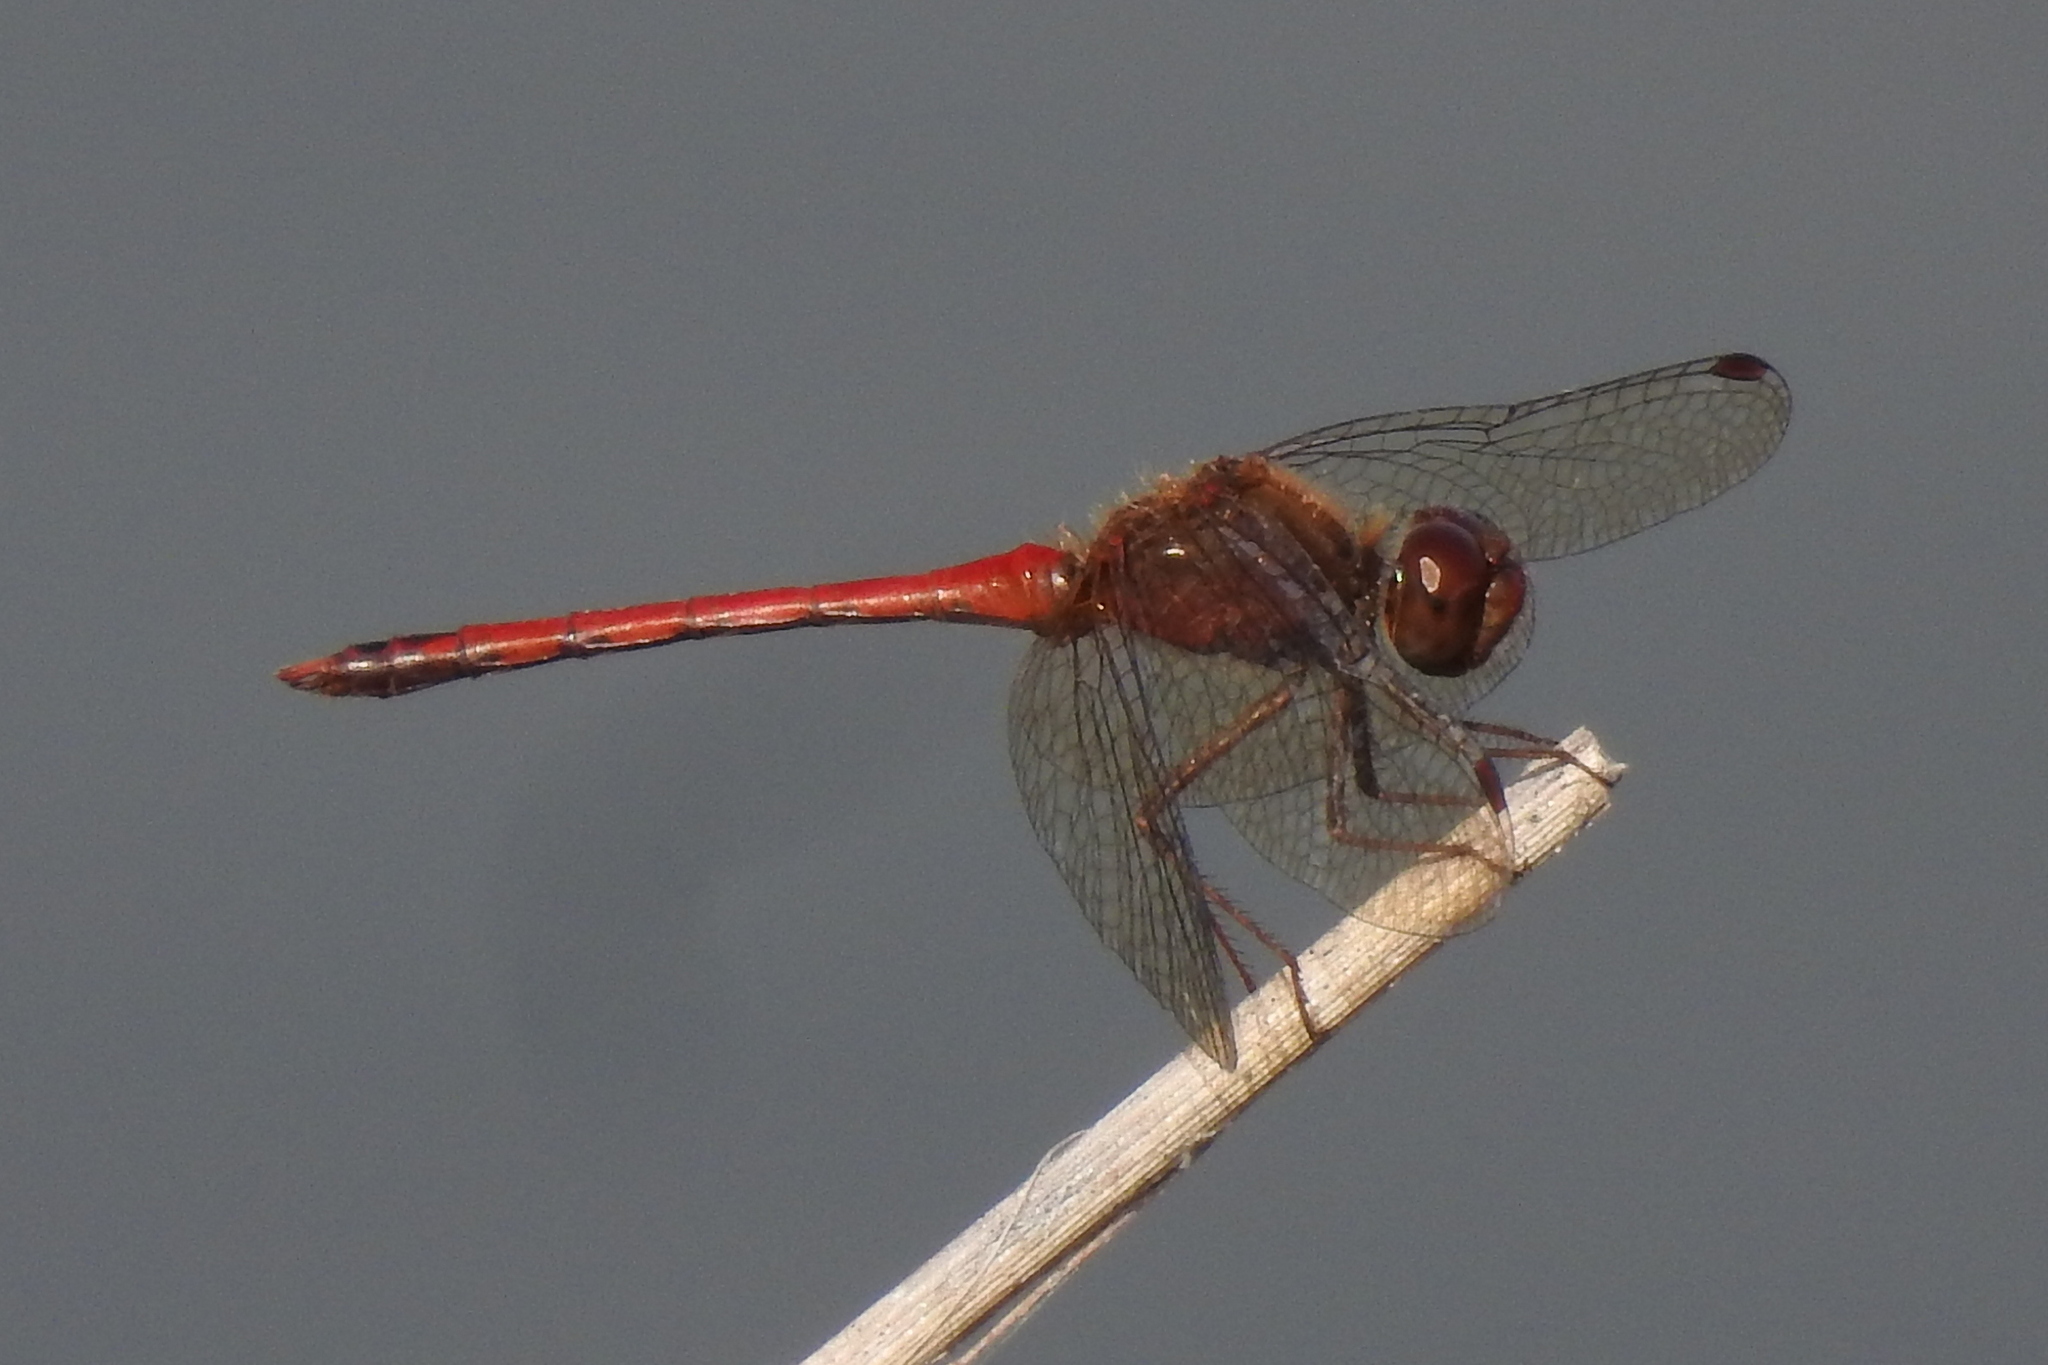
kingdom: Animalia
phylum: Arthropoda
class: Insecta
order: Odonata
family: Libellulidae
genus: Sympetrum
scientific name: Sympetrum vicinum
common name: Autumn meadowhawk
